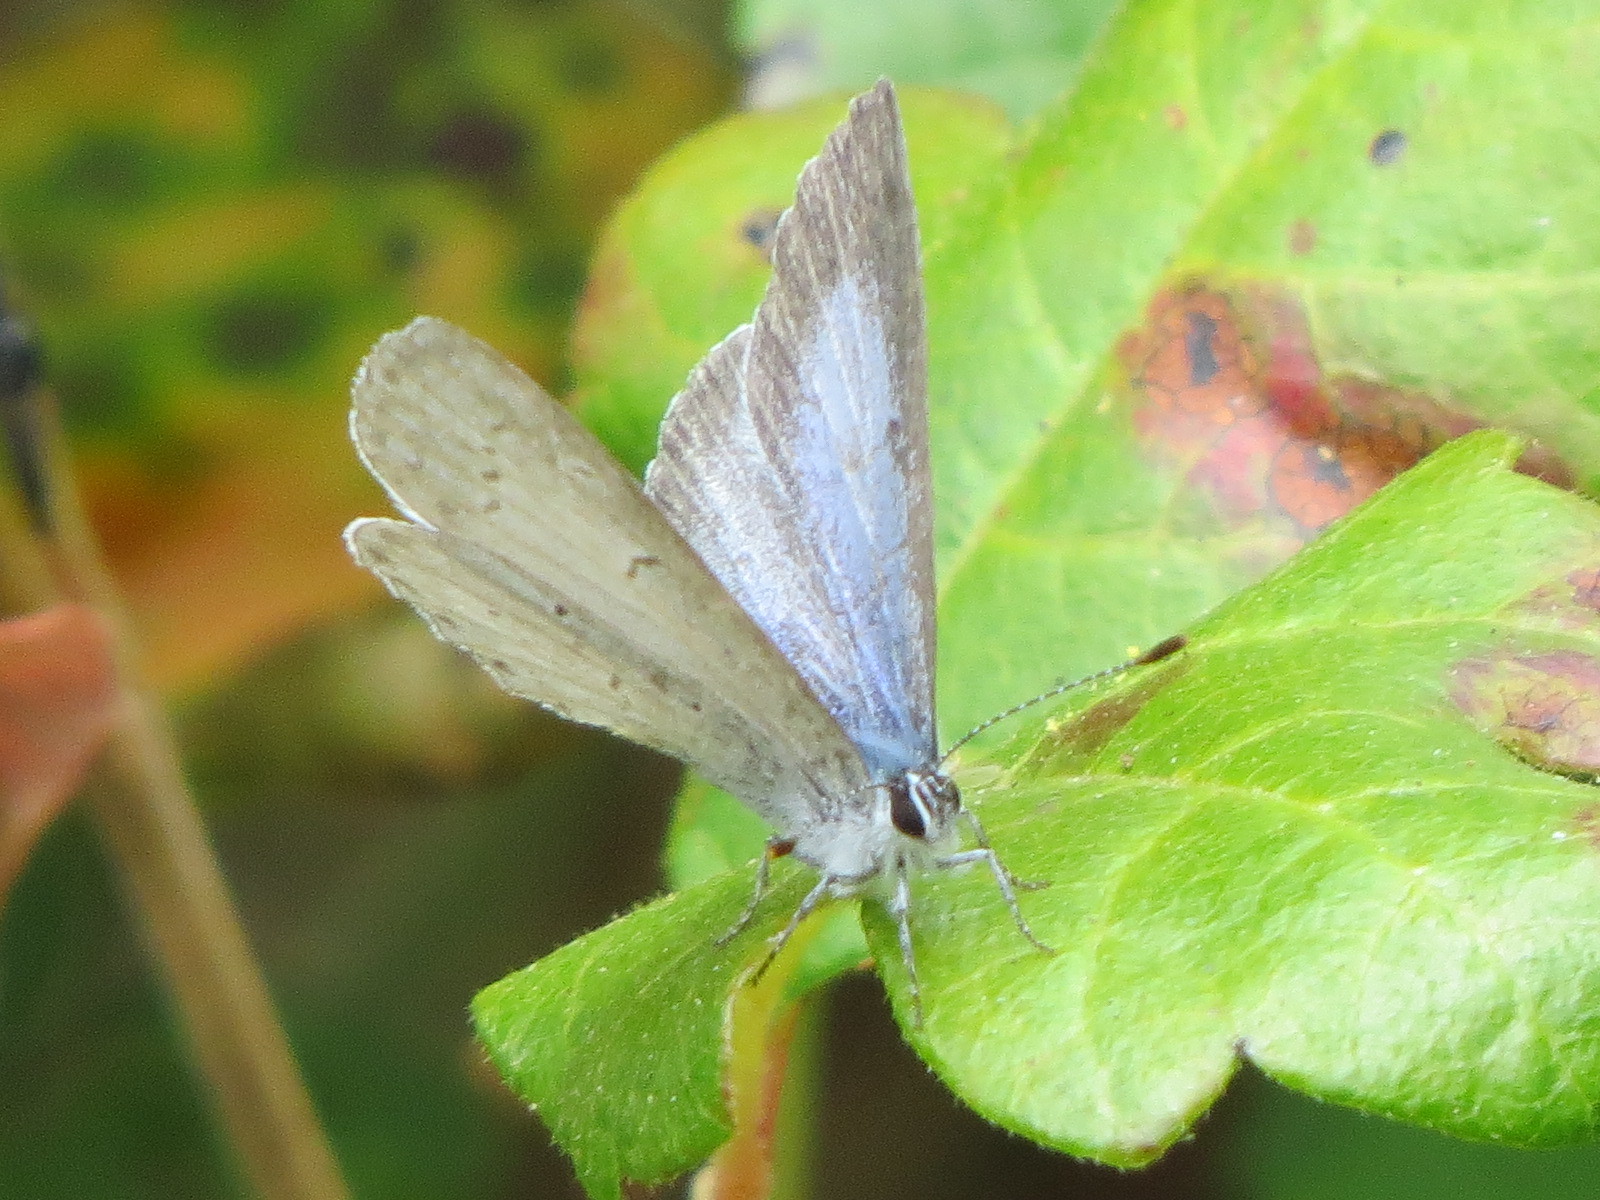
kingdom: Animalia
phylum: Arthropoda
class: Insecta
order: Lepidoptera
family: Lycaenidae
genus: Celastrina
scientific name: Celastrina ladon
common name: Spring azure
